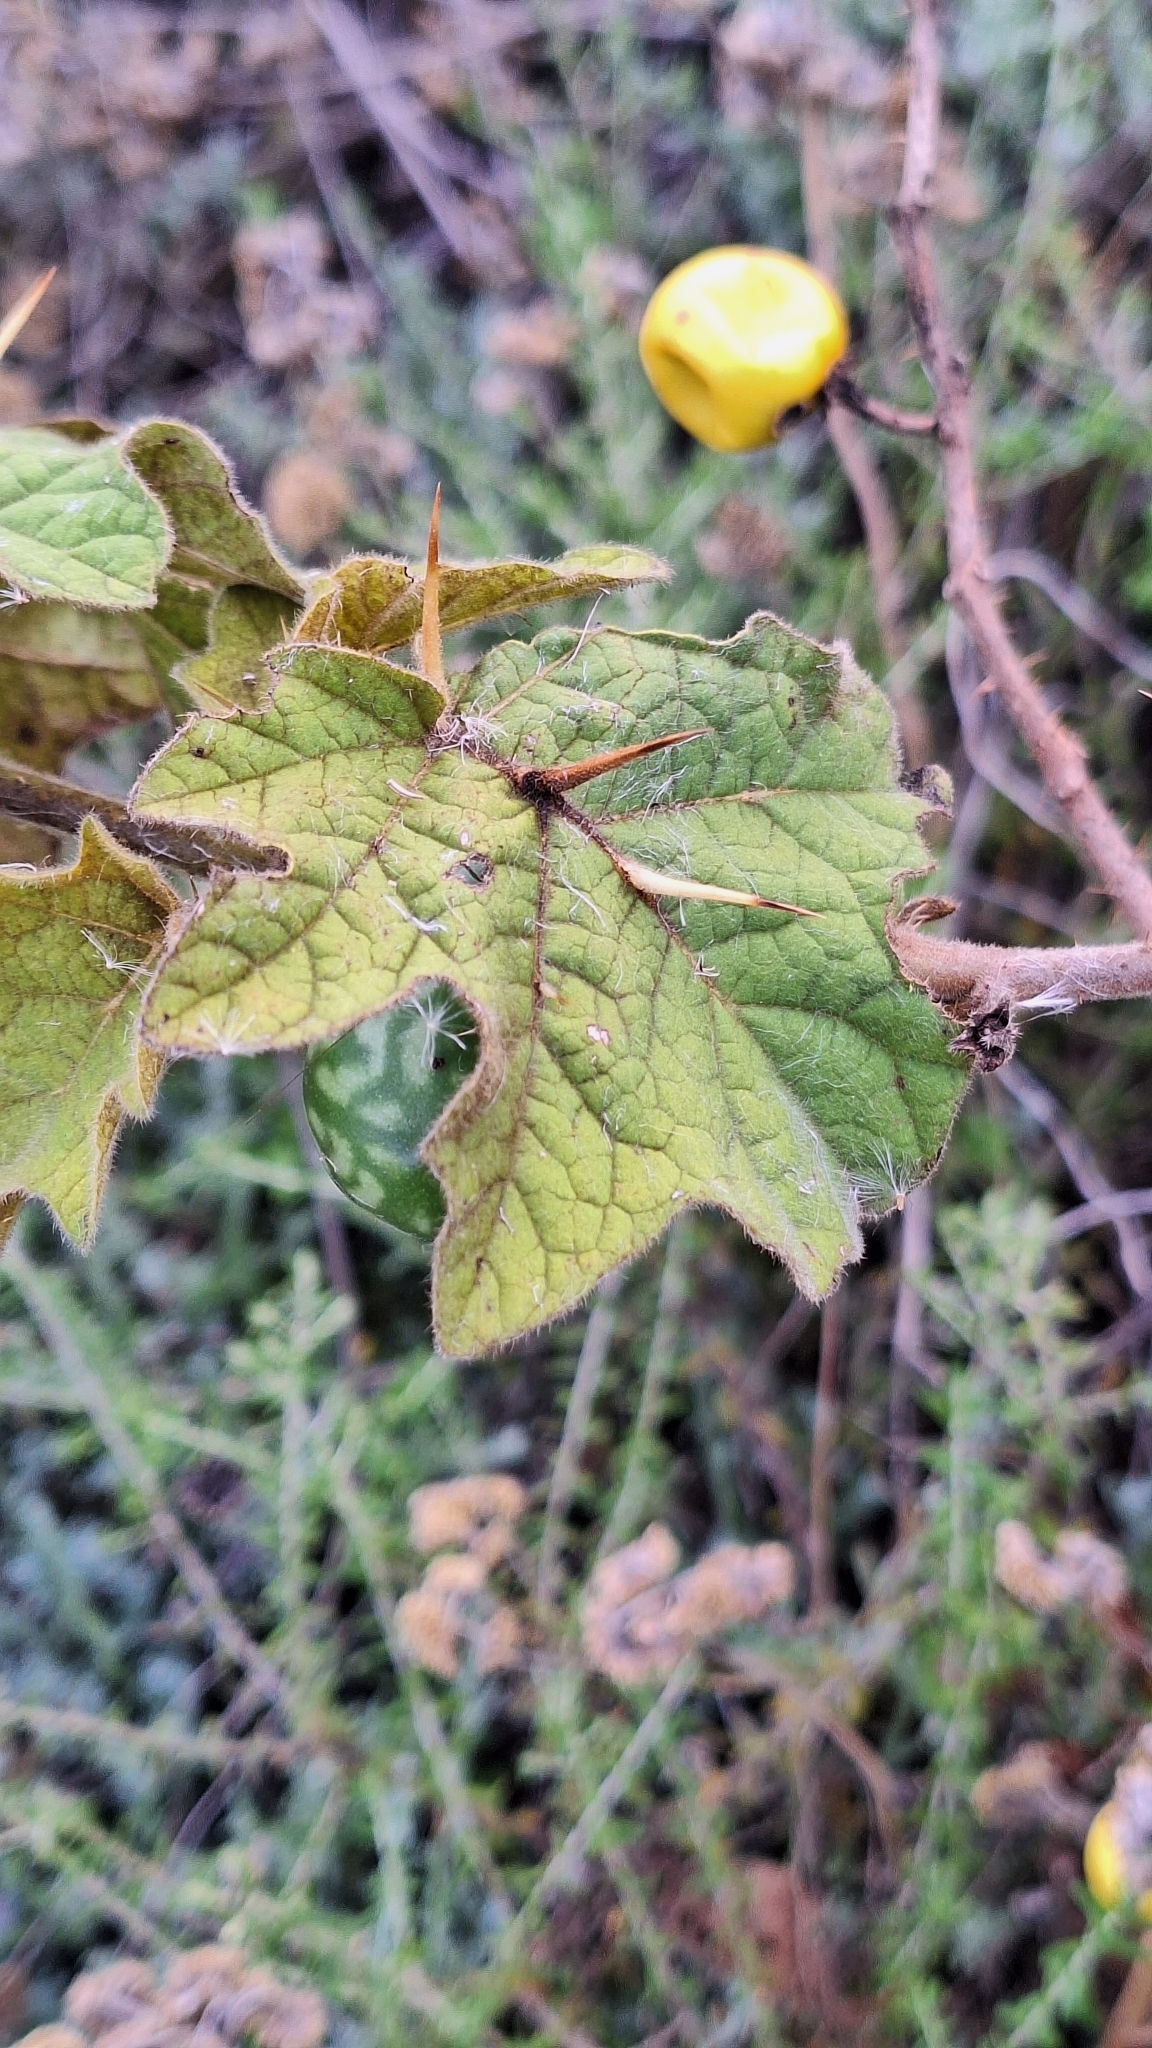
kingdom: Plantae
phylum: Tracheophyta
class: Magnoliopsida
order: Solanales
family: Solanaceae
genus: Solanum
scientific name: Solanum viarum
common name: Tropical soda apple
